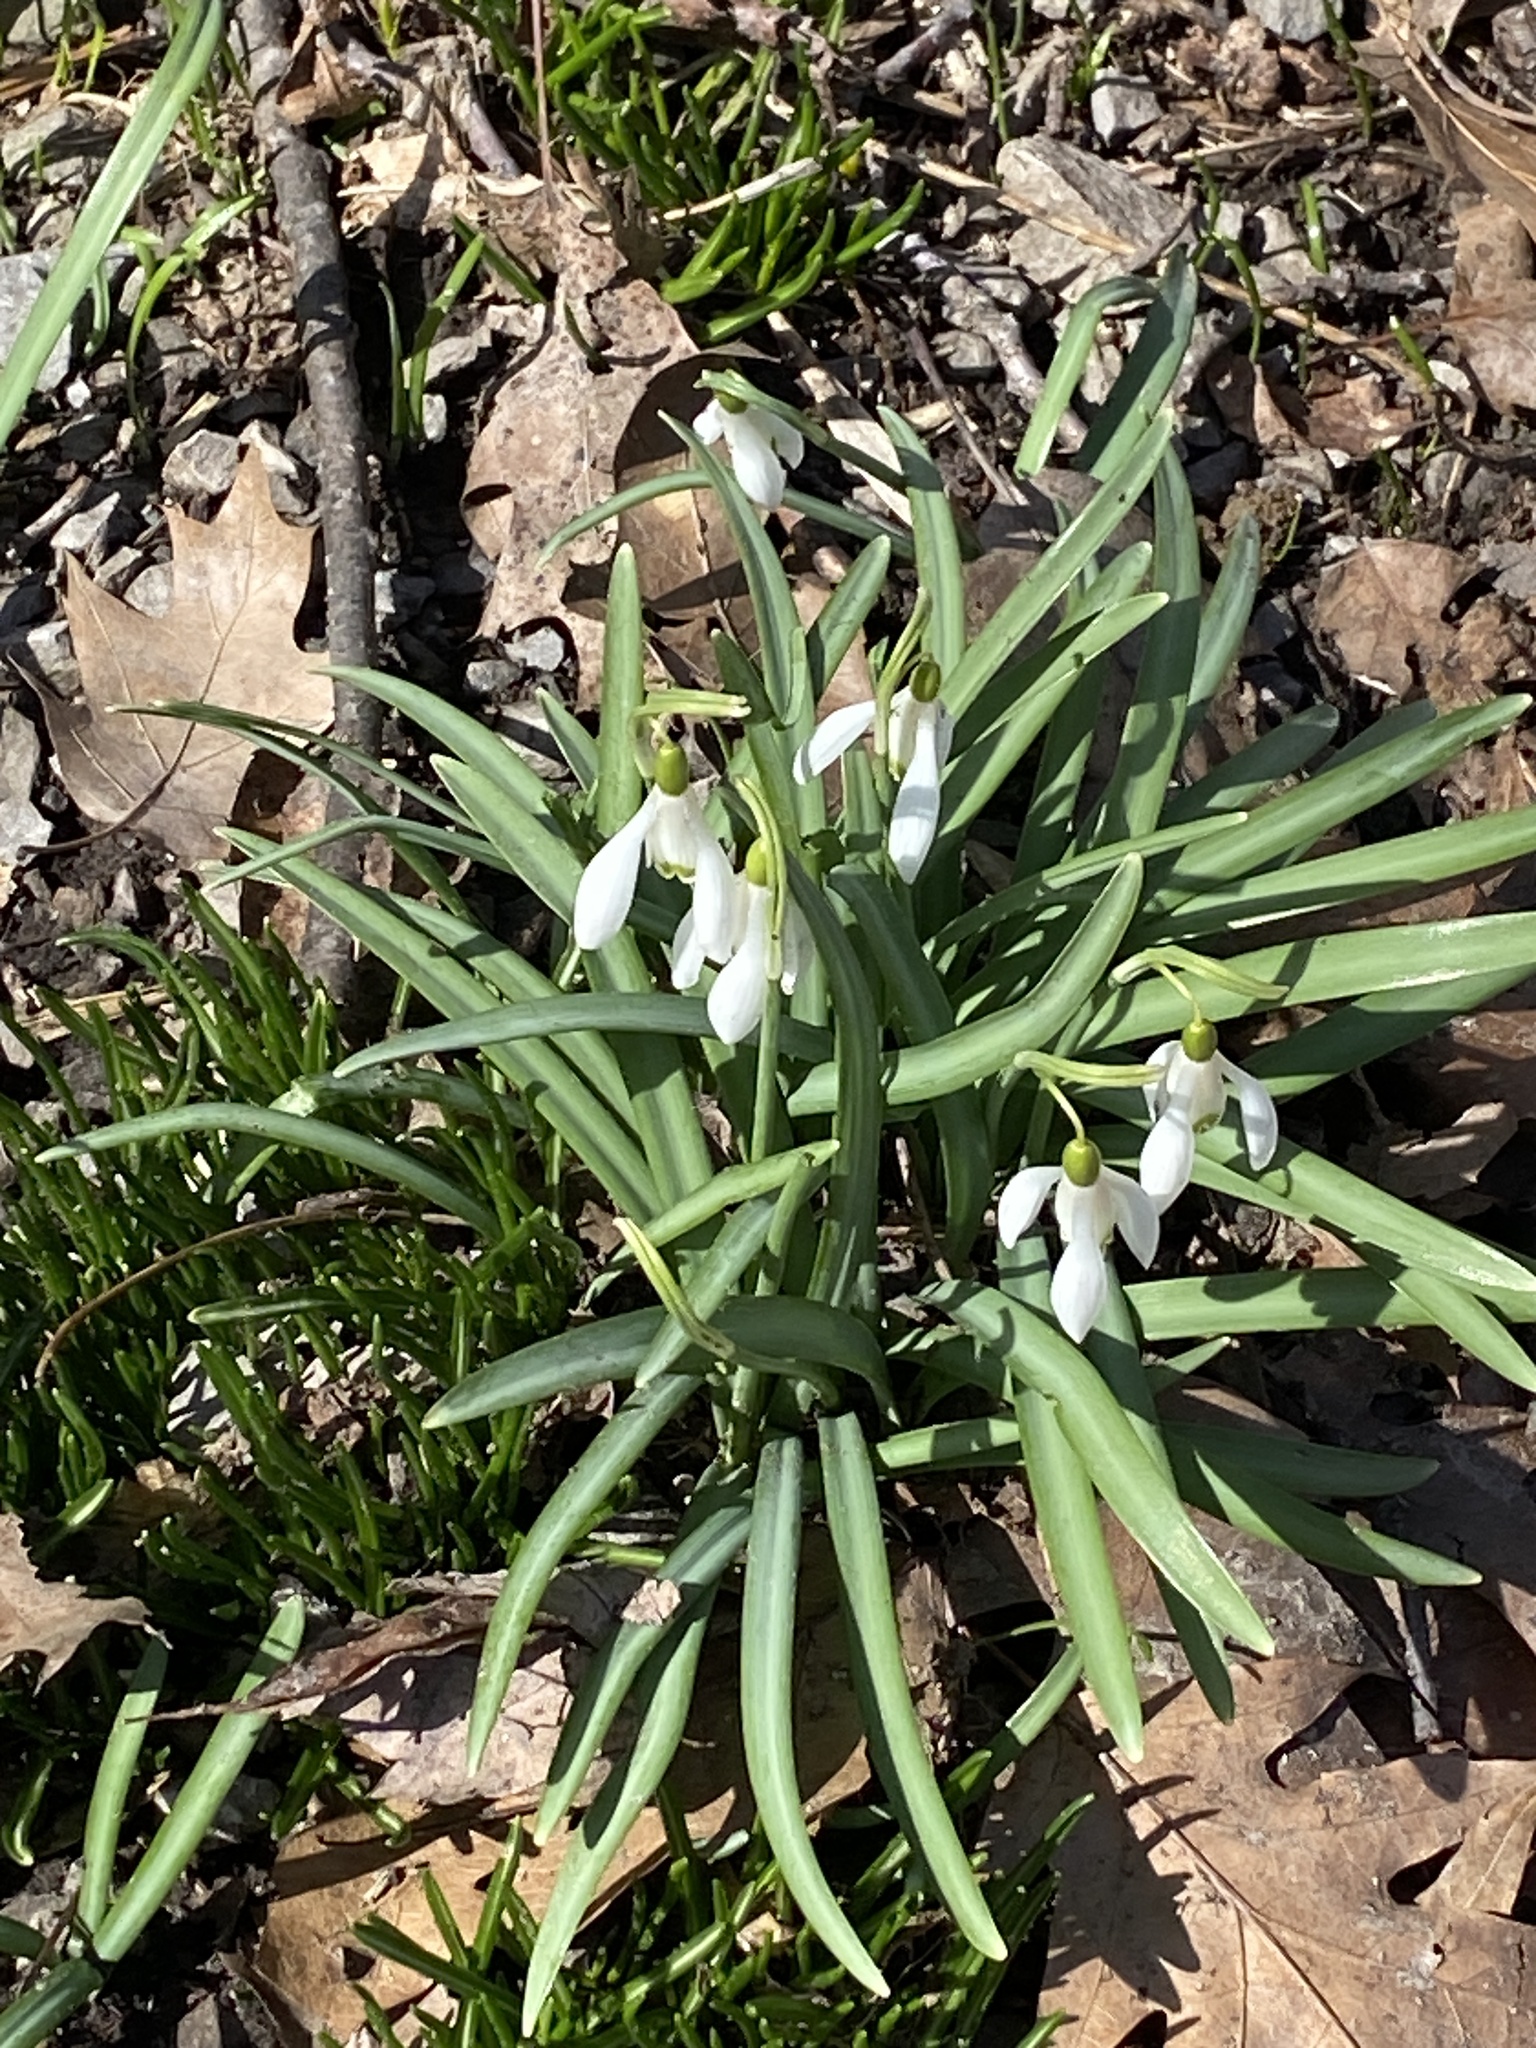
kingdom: Plantae
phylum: Tracheophyta
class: Liliopsida
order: Asparagales
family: Amaryllidaceae
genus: Galanthus
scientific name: Galanthus nivalis
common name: Snowdrop
